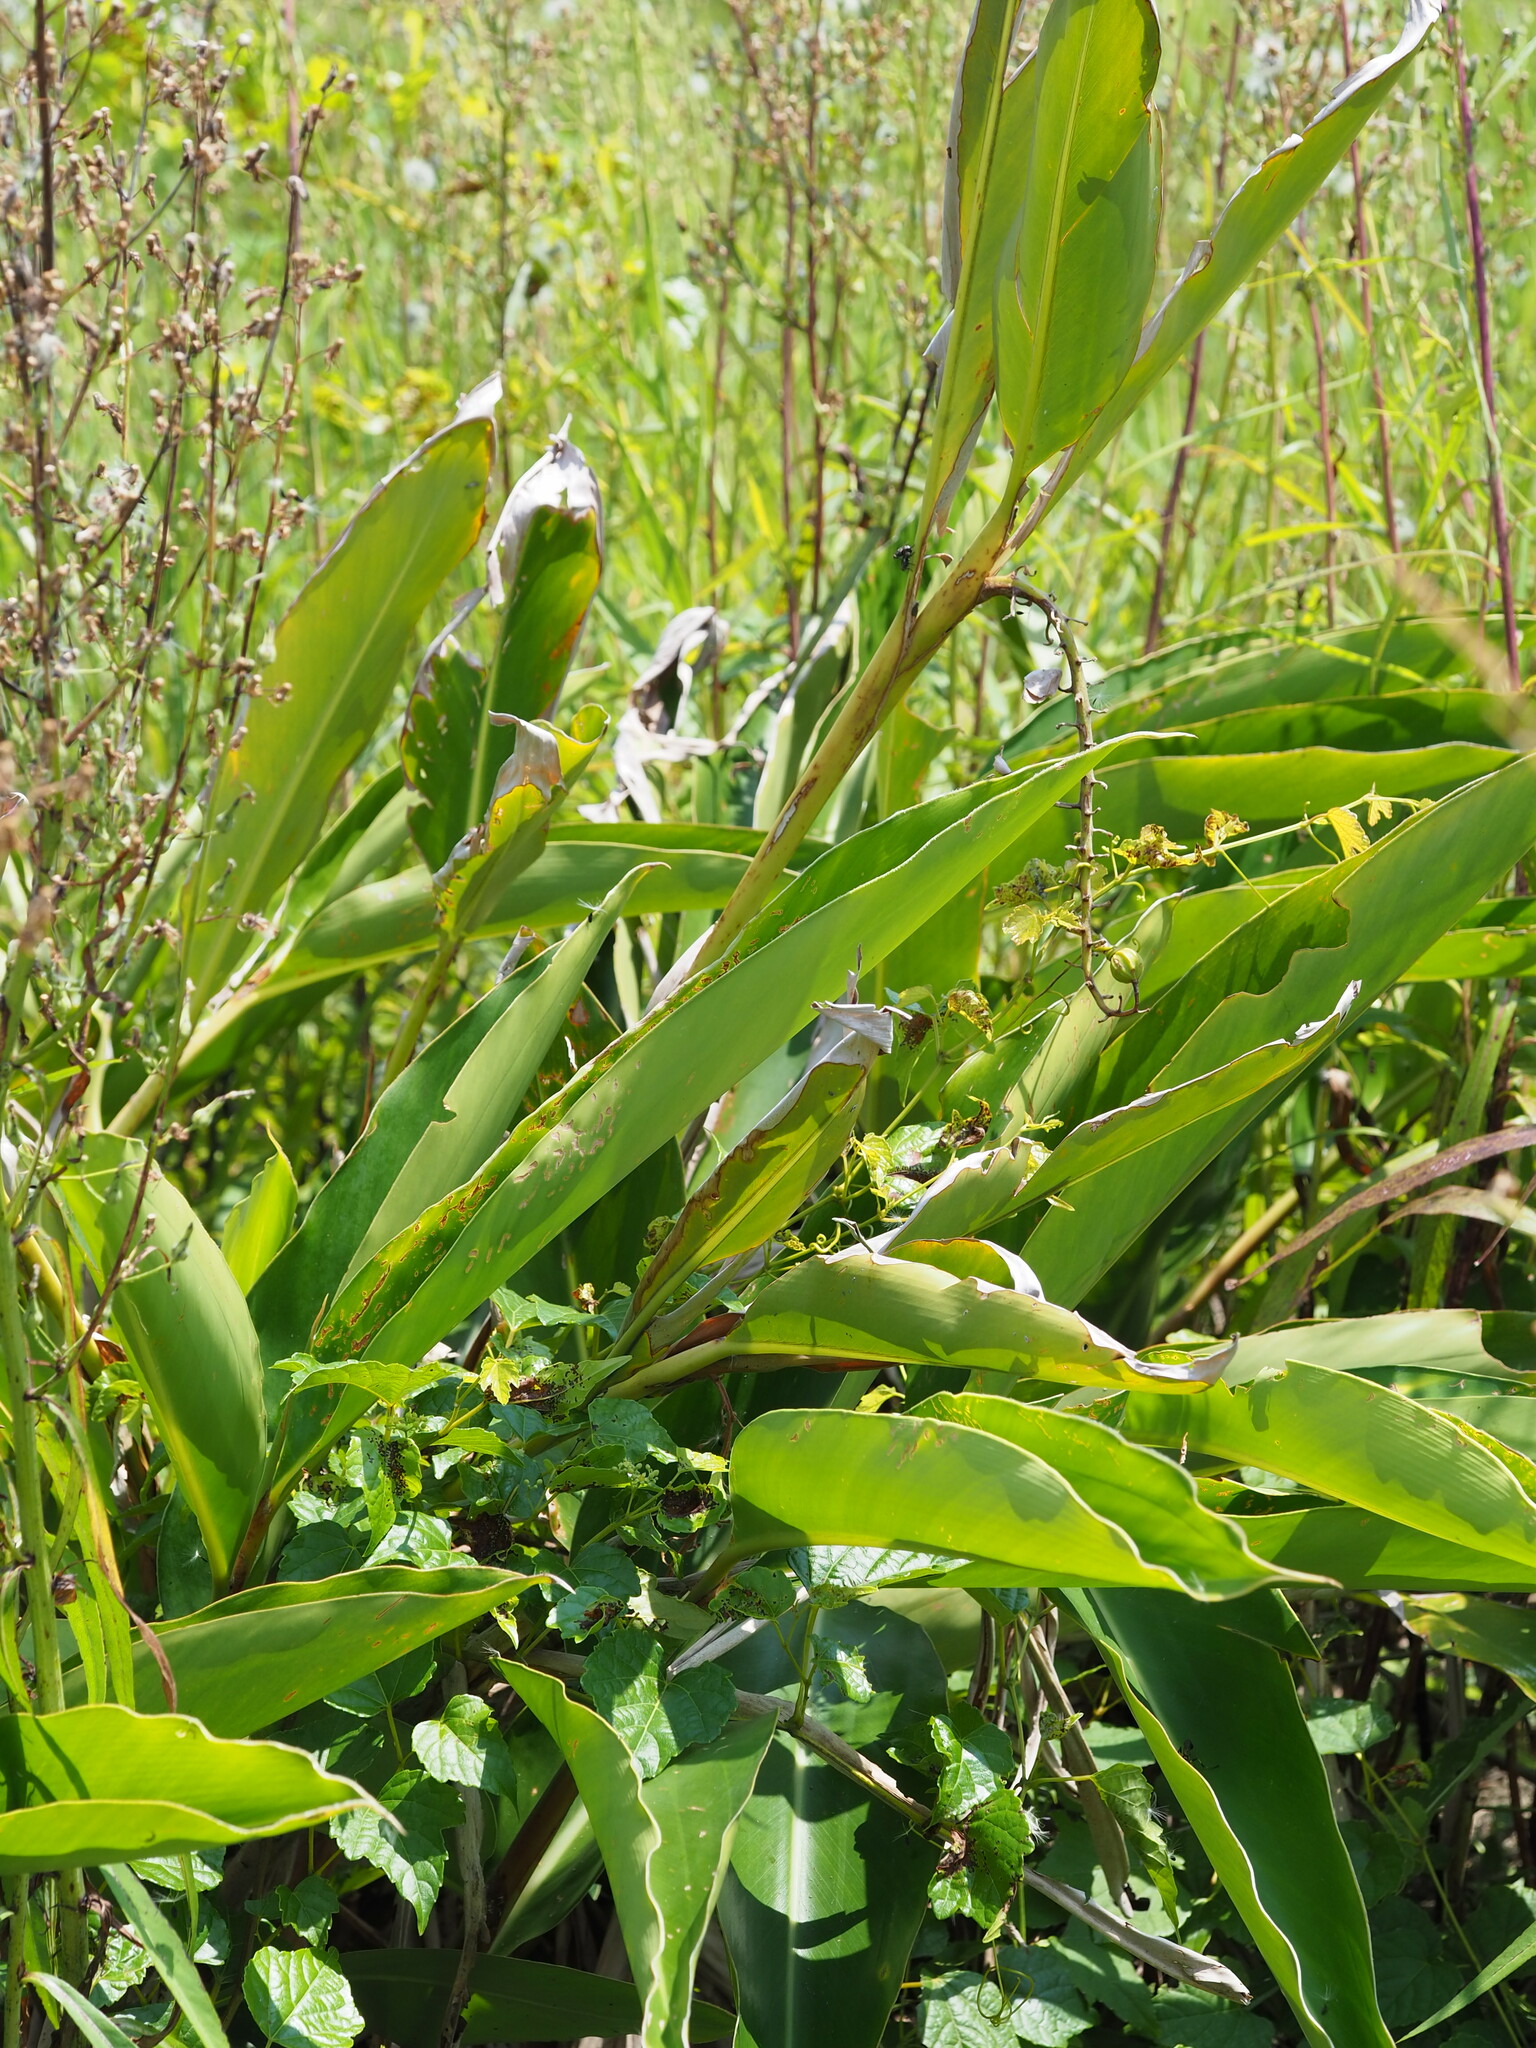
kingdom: Plantae
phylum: Tracheophyta
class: Liliopsida
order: Zingiberales
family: Zingiberaceae
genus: Alpinia
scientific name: Alpinia zerumbet
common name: Shellplant
